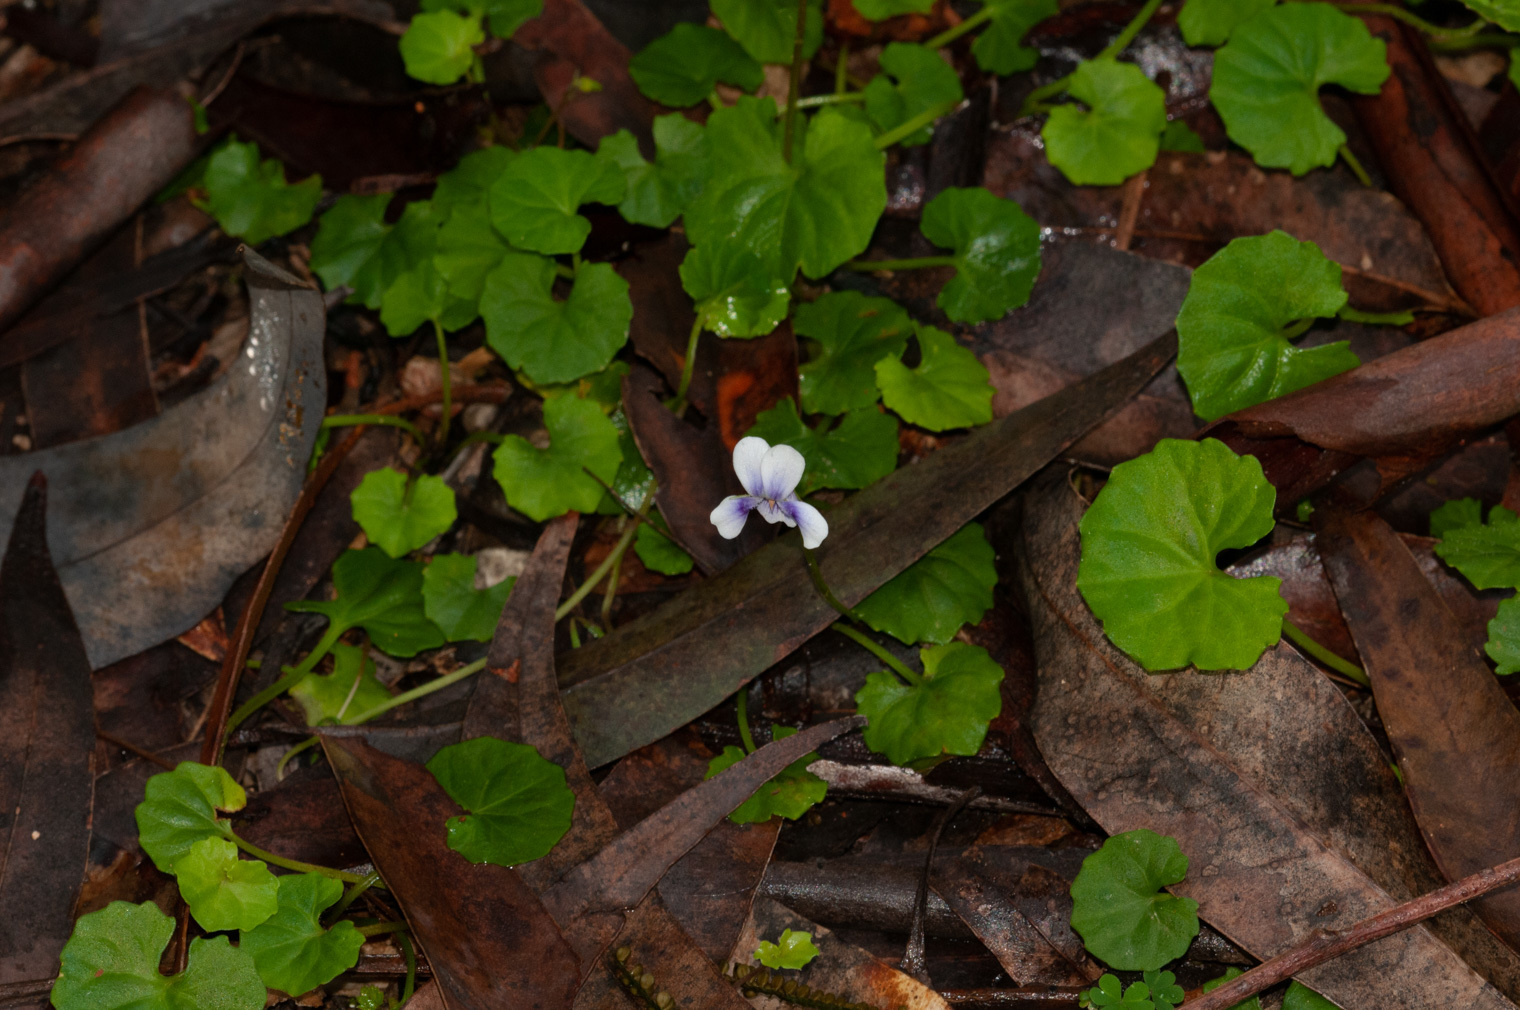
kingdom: Plantae
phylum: Tracheophyta
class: Magnoliopsida
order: Malpighiales
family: Violaceae
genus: Viola
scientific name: Viola banksii
